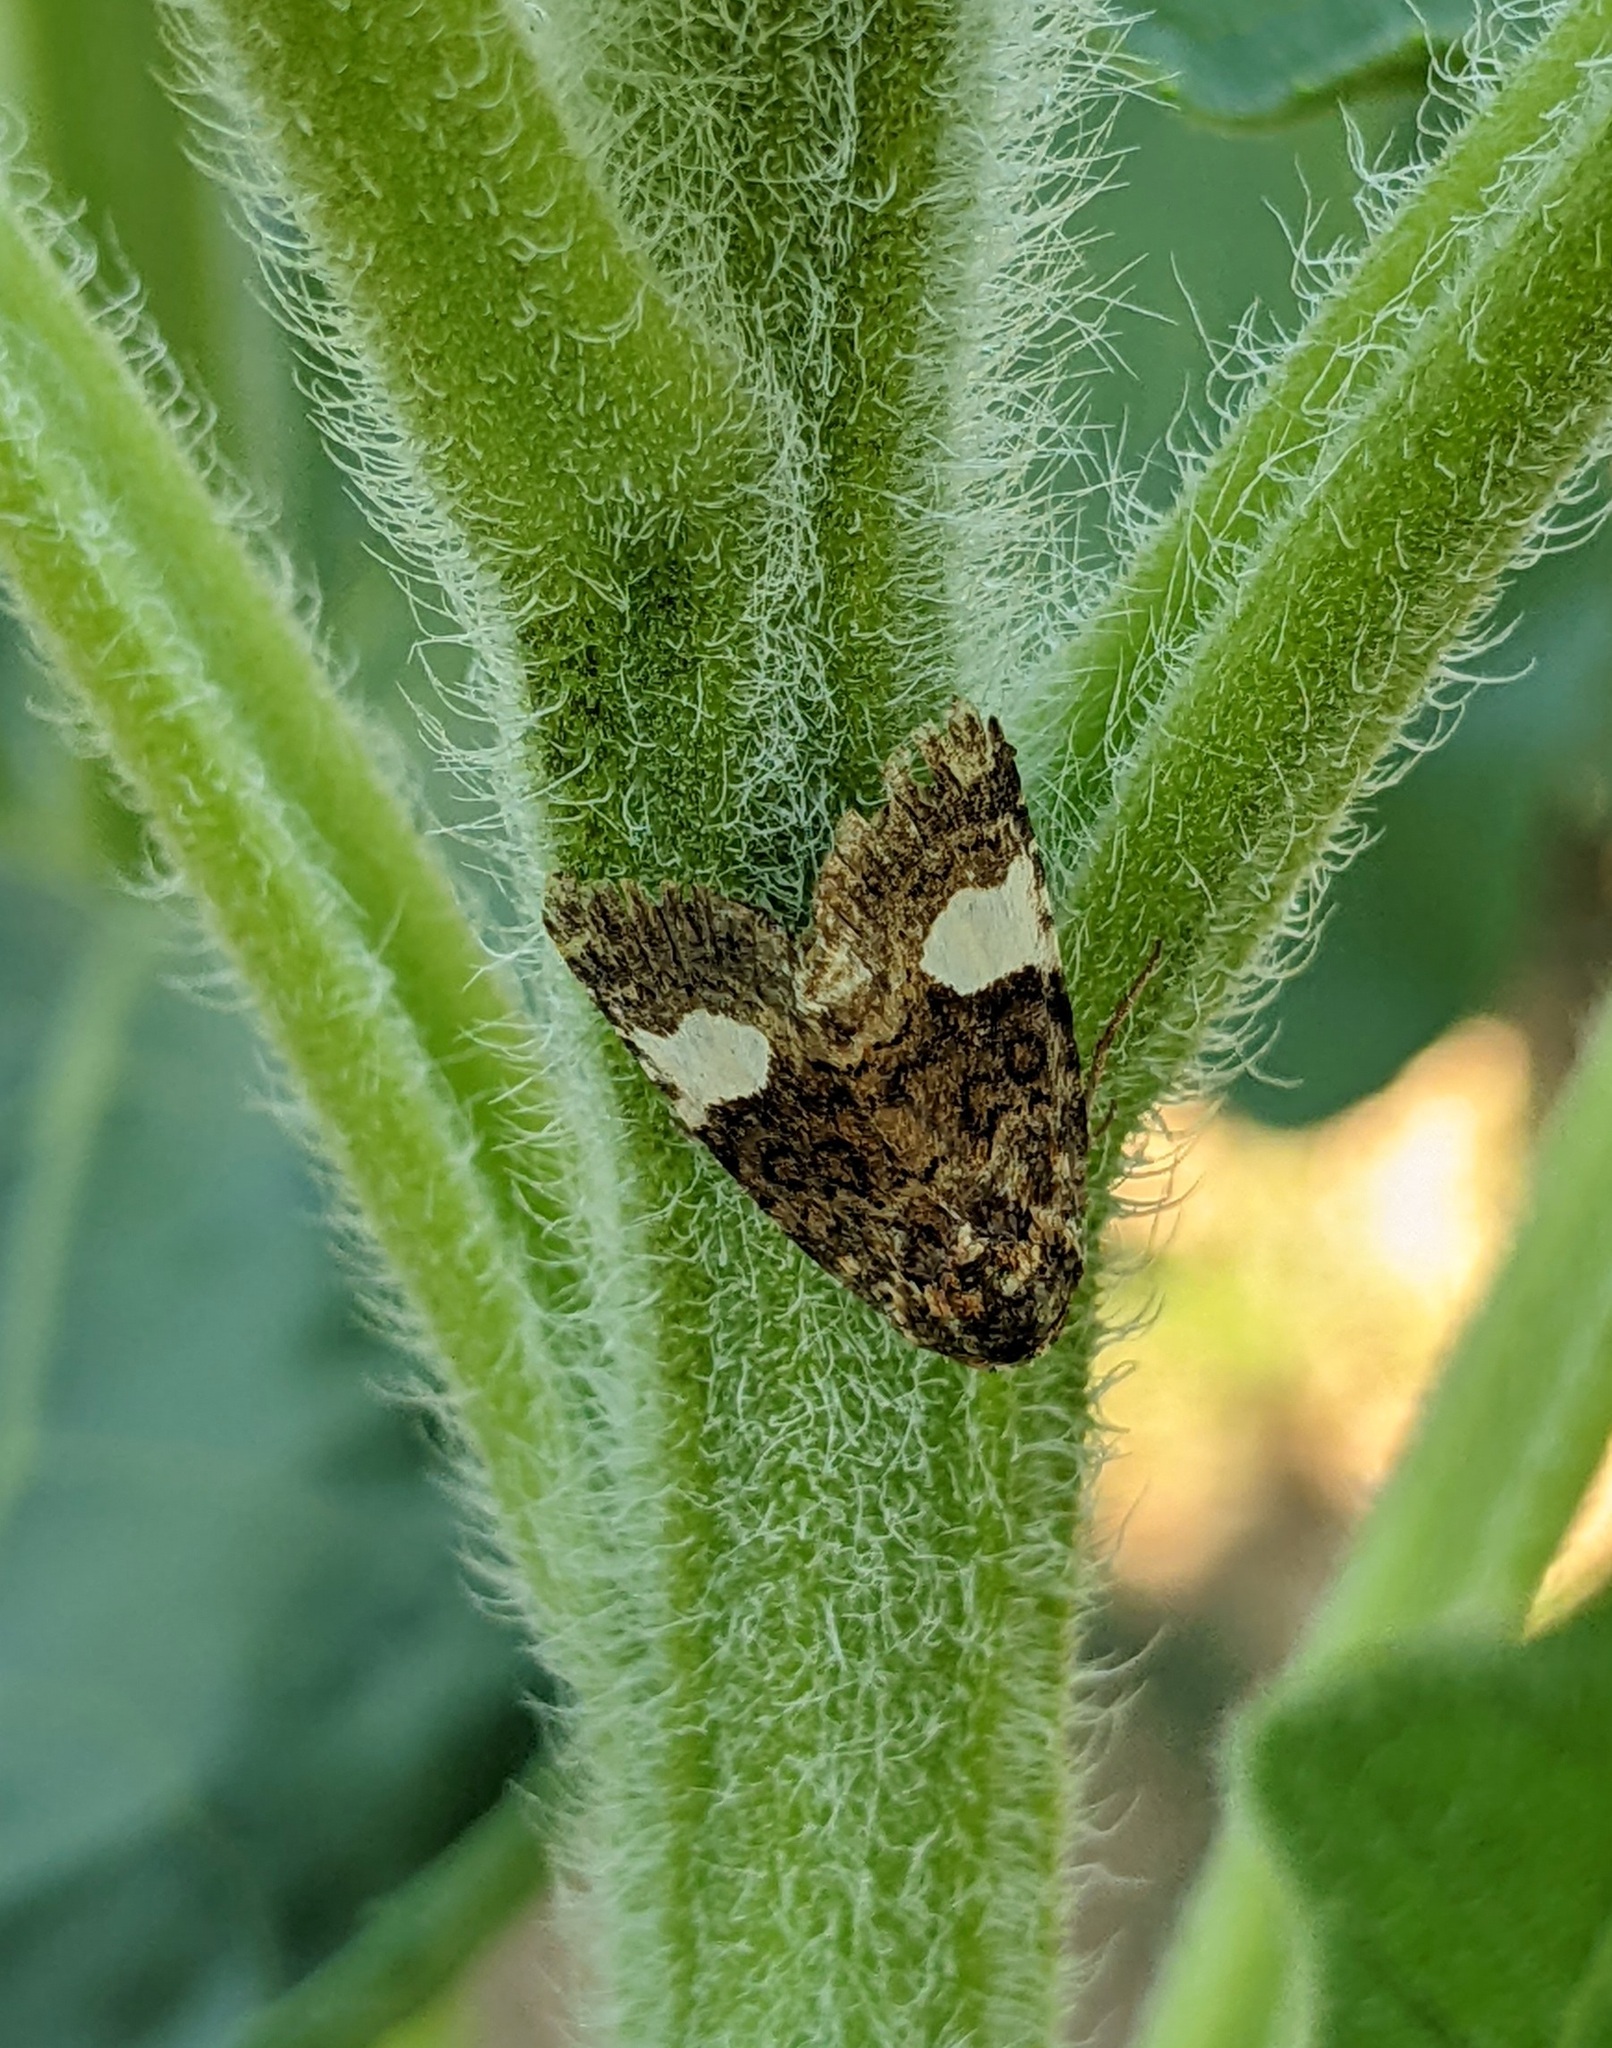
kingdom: Animalia
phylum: Arthropoda
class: Insecta
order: Lepidoptera
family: Erebidae
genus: Tyta
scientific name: Tyta luctuosa
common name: Four-spotted
